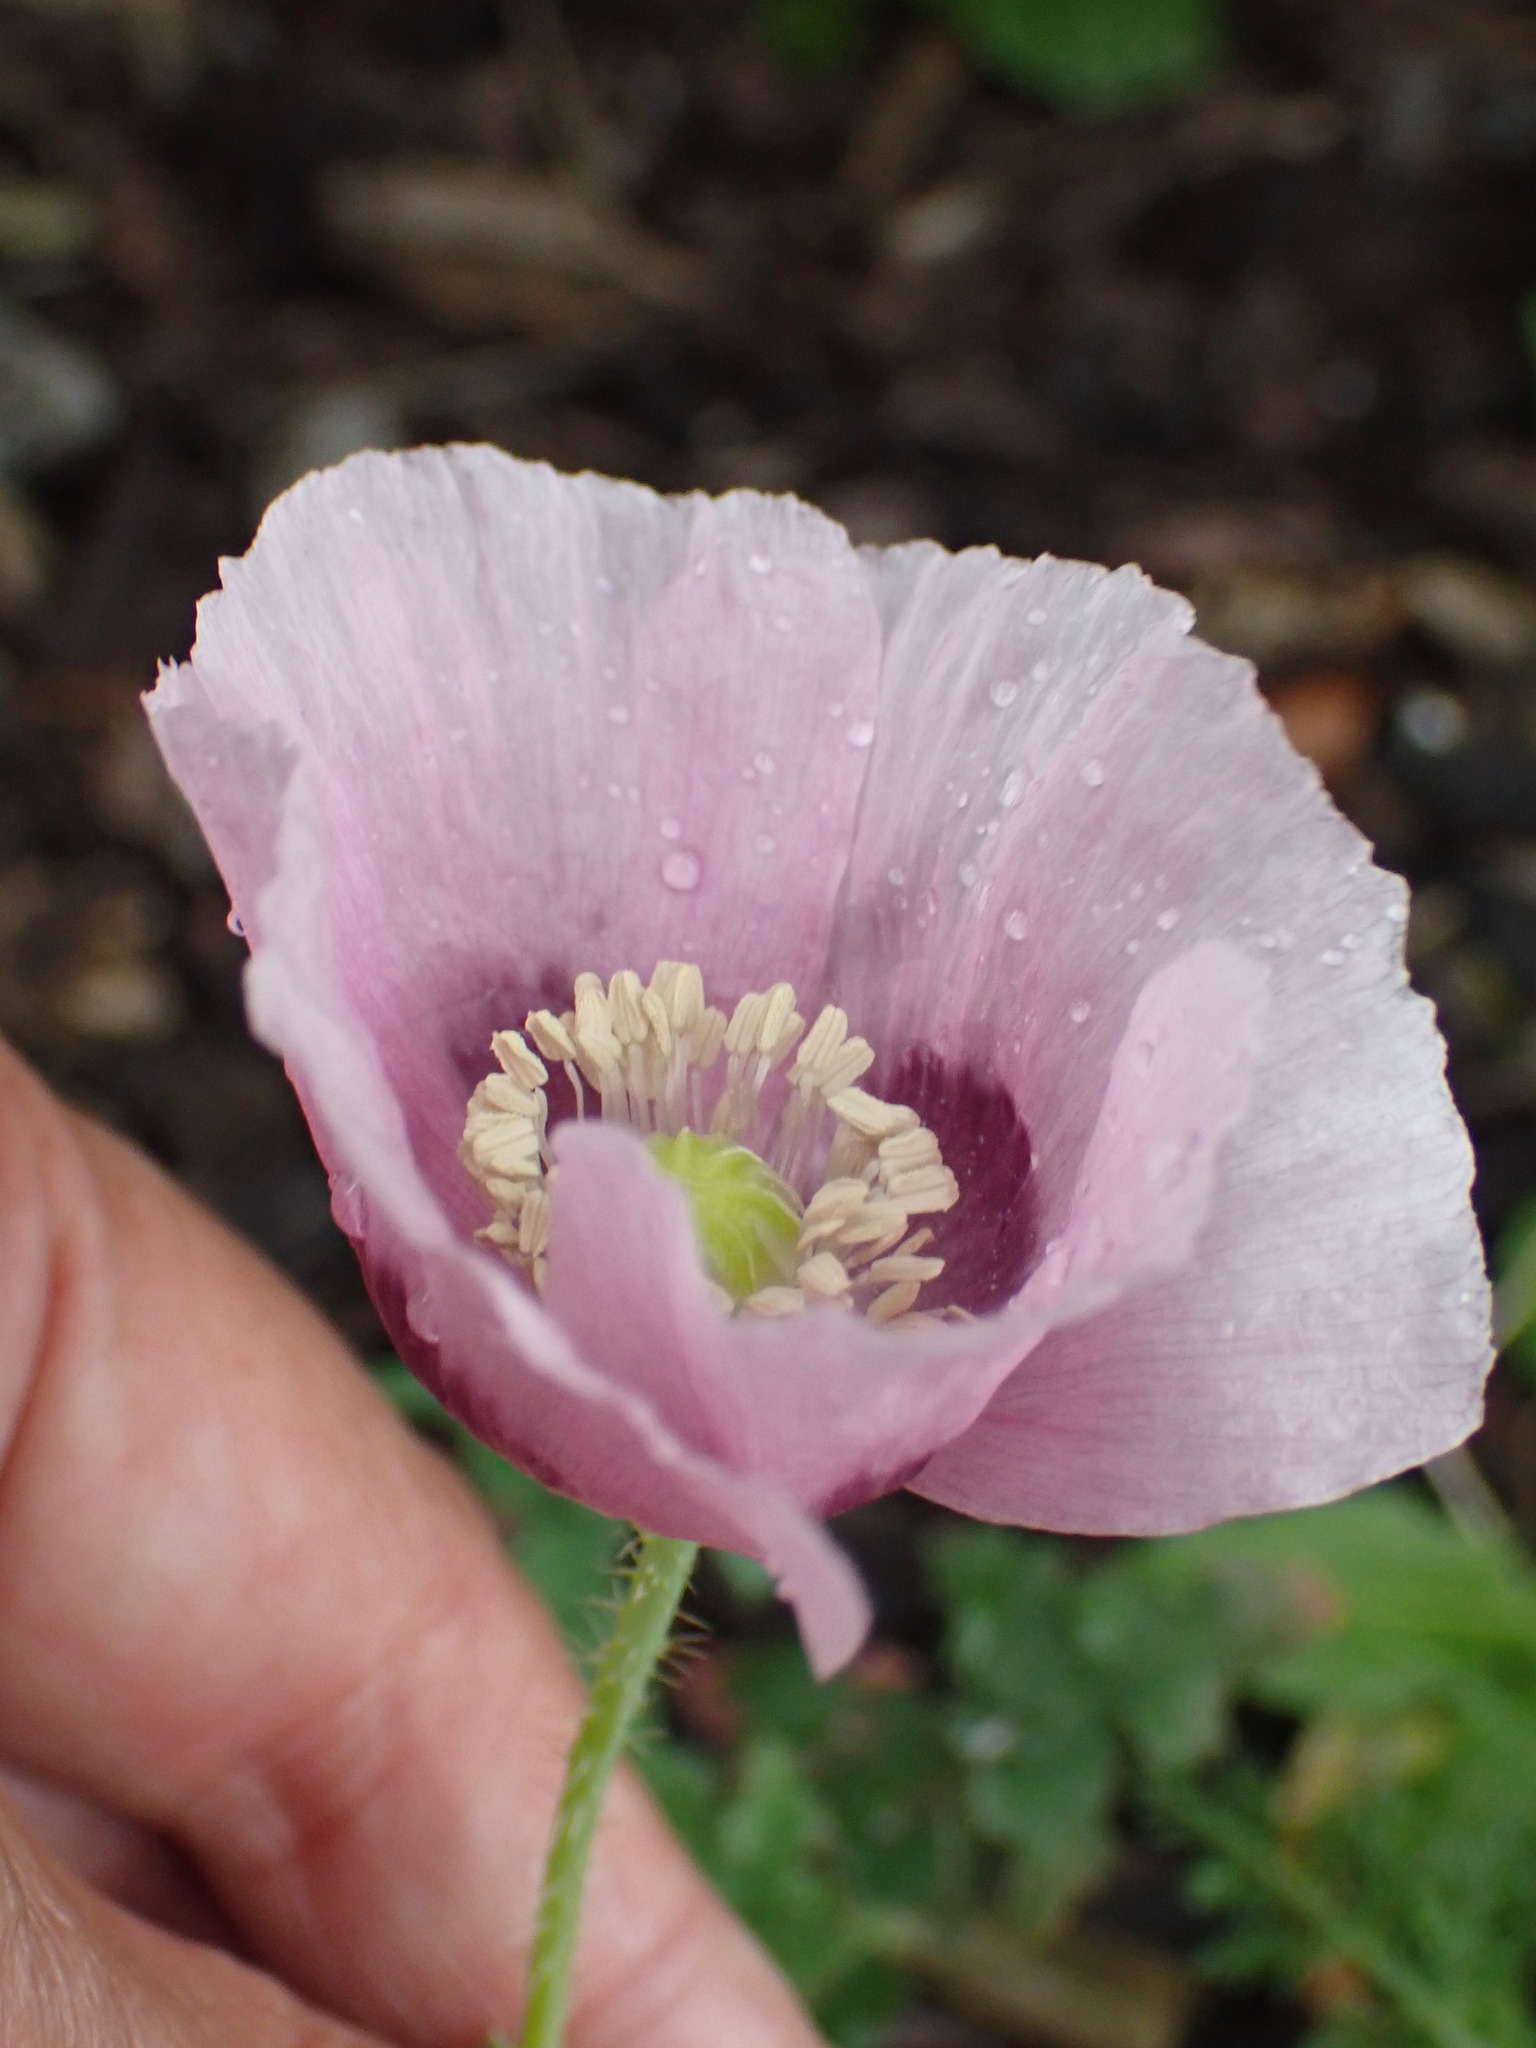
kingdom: Plantae
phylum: Tracheophyta
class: Magnoliopsida
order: Ranunculales
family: Papaveraceae
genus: Papaver
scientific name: Papaver somniferum
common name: Opium poppy
